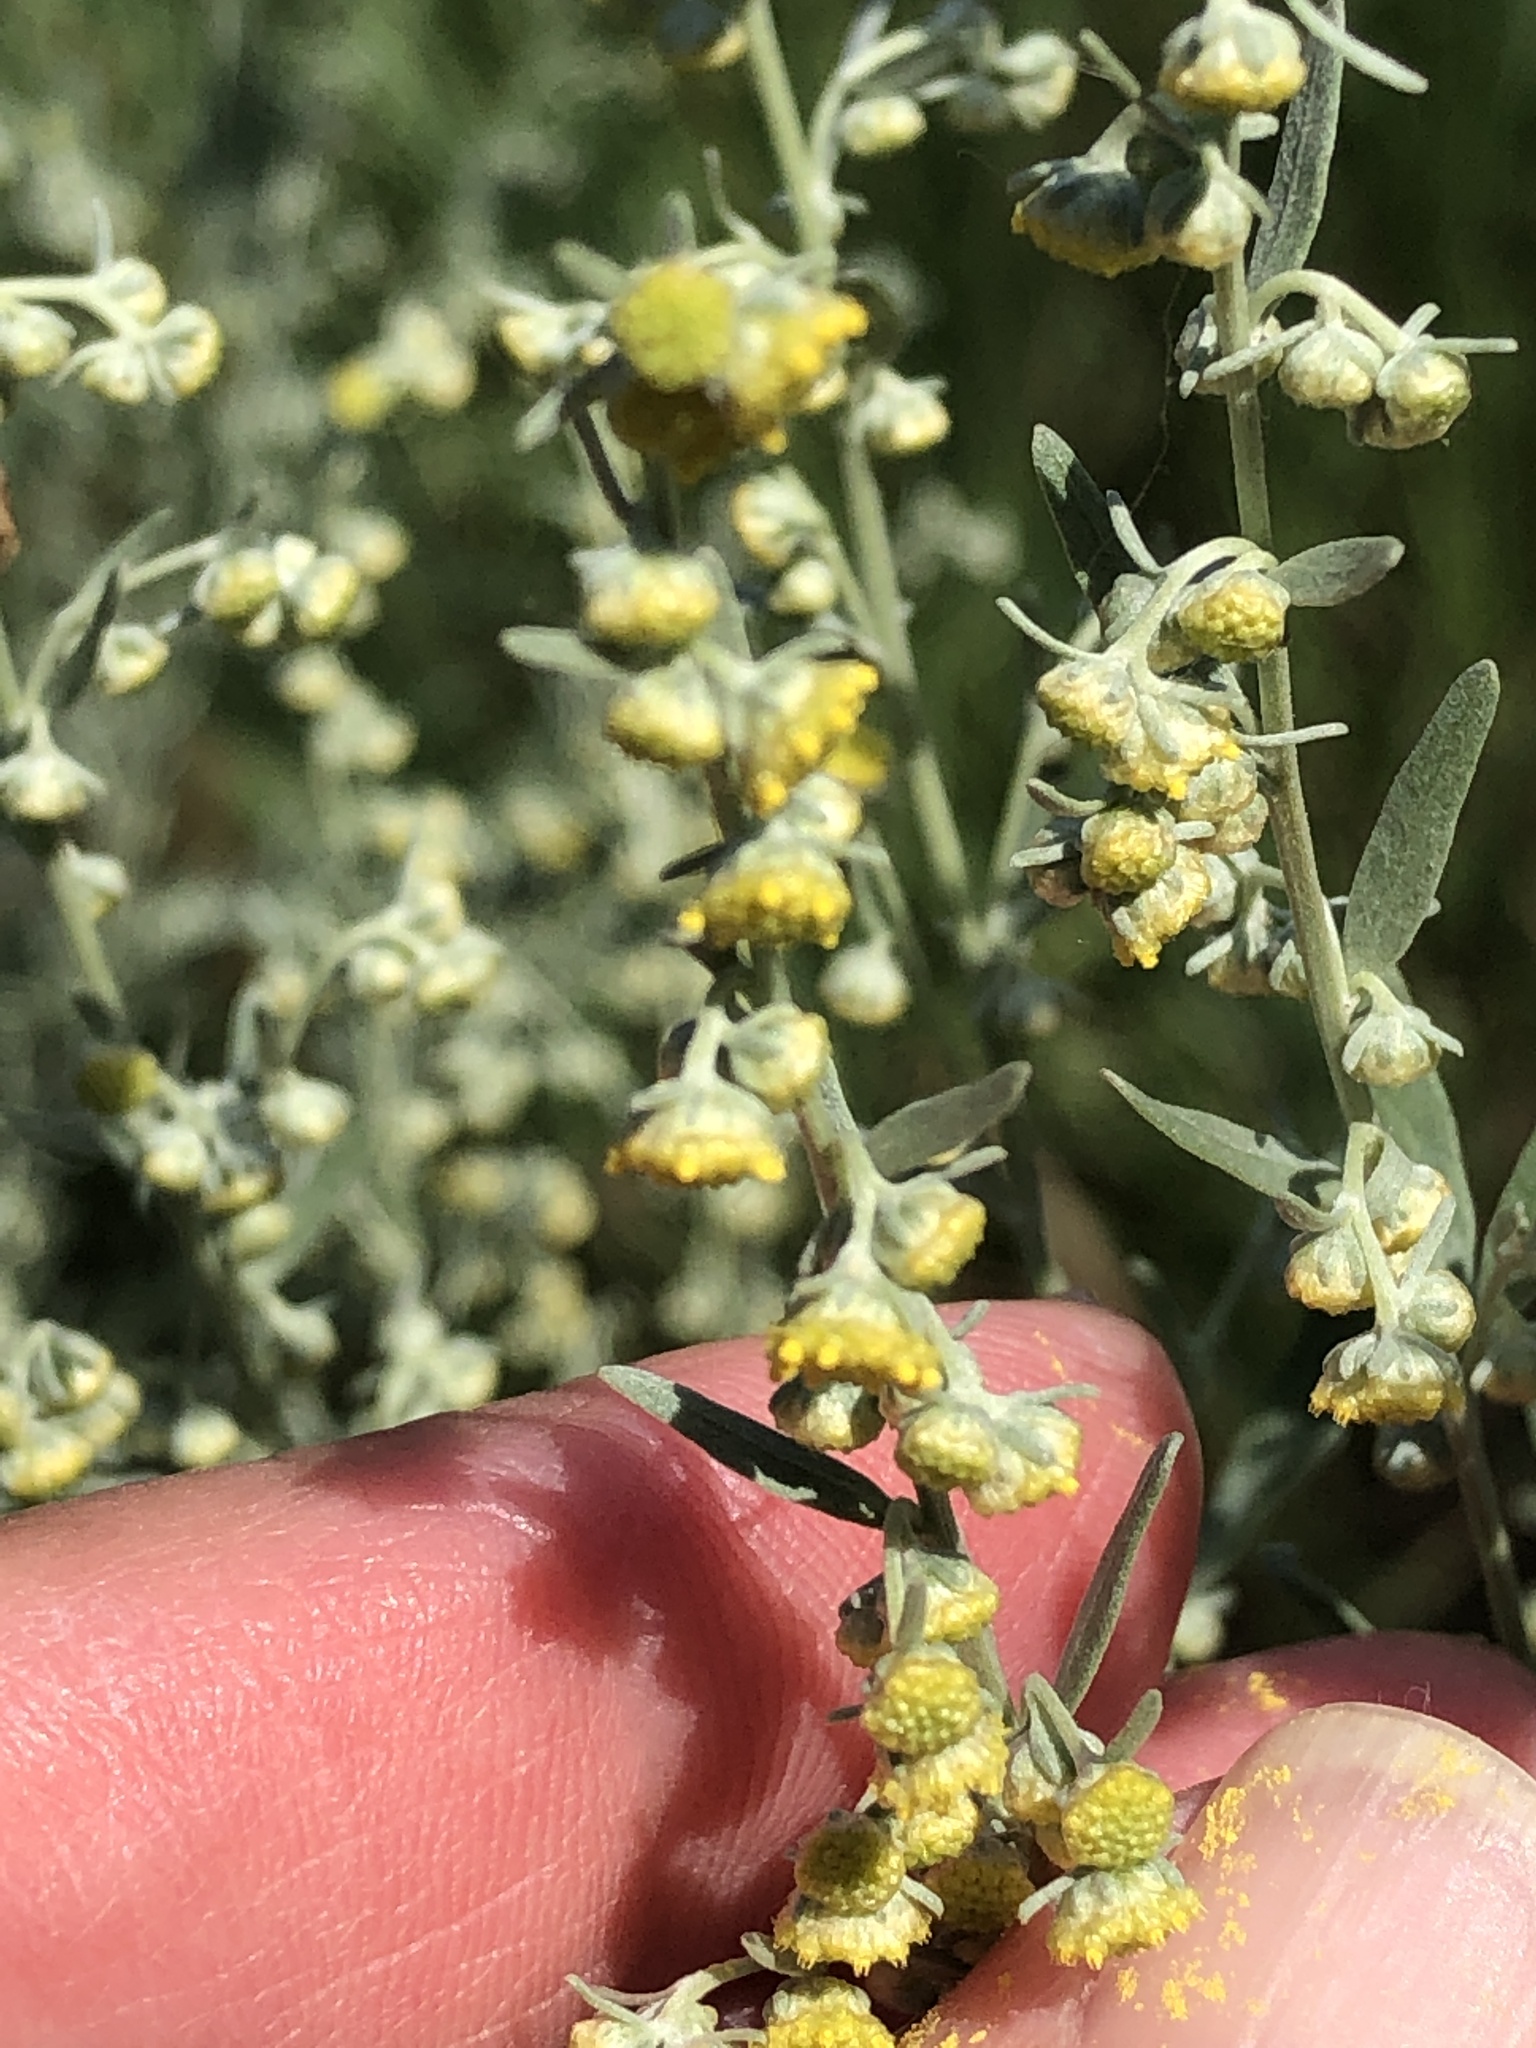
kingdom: Plantae
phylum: Tracheophyta
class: Magnoliopsida
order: Asterales
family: Asteraceae
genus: Artemisia
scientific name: Artemisia absinthium
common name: Wormwood
